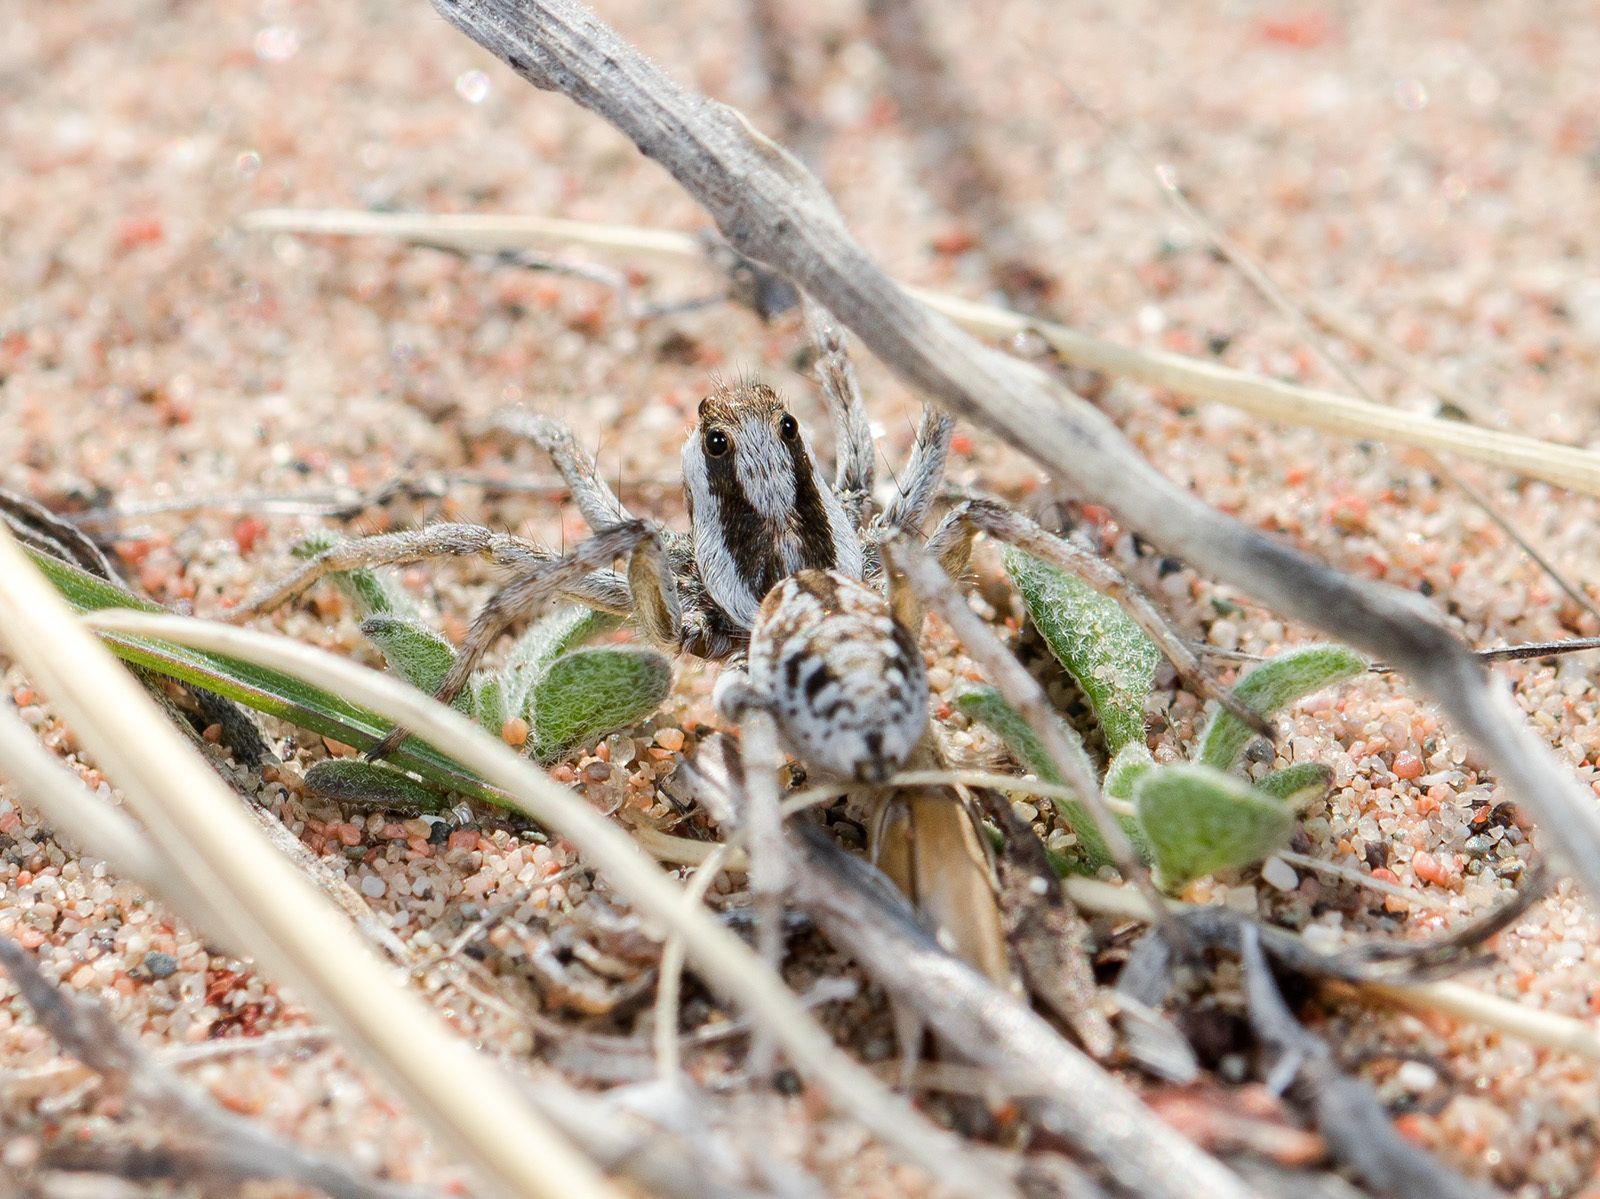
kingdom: Animalia
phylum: Arthropoda
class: Arachnida
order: Araneae
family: Lycosidae
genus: Alopecosa
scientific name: Alopecosa marikovskyi
